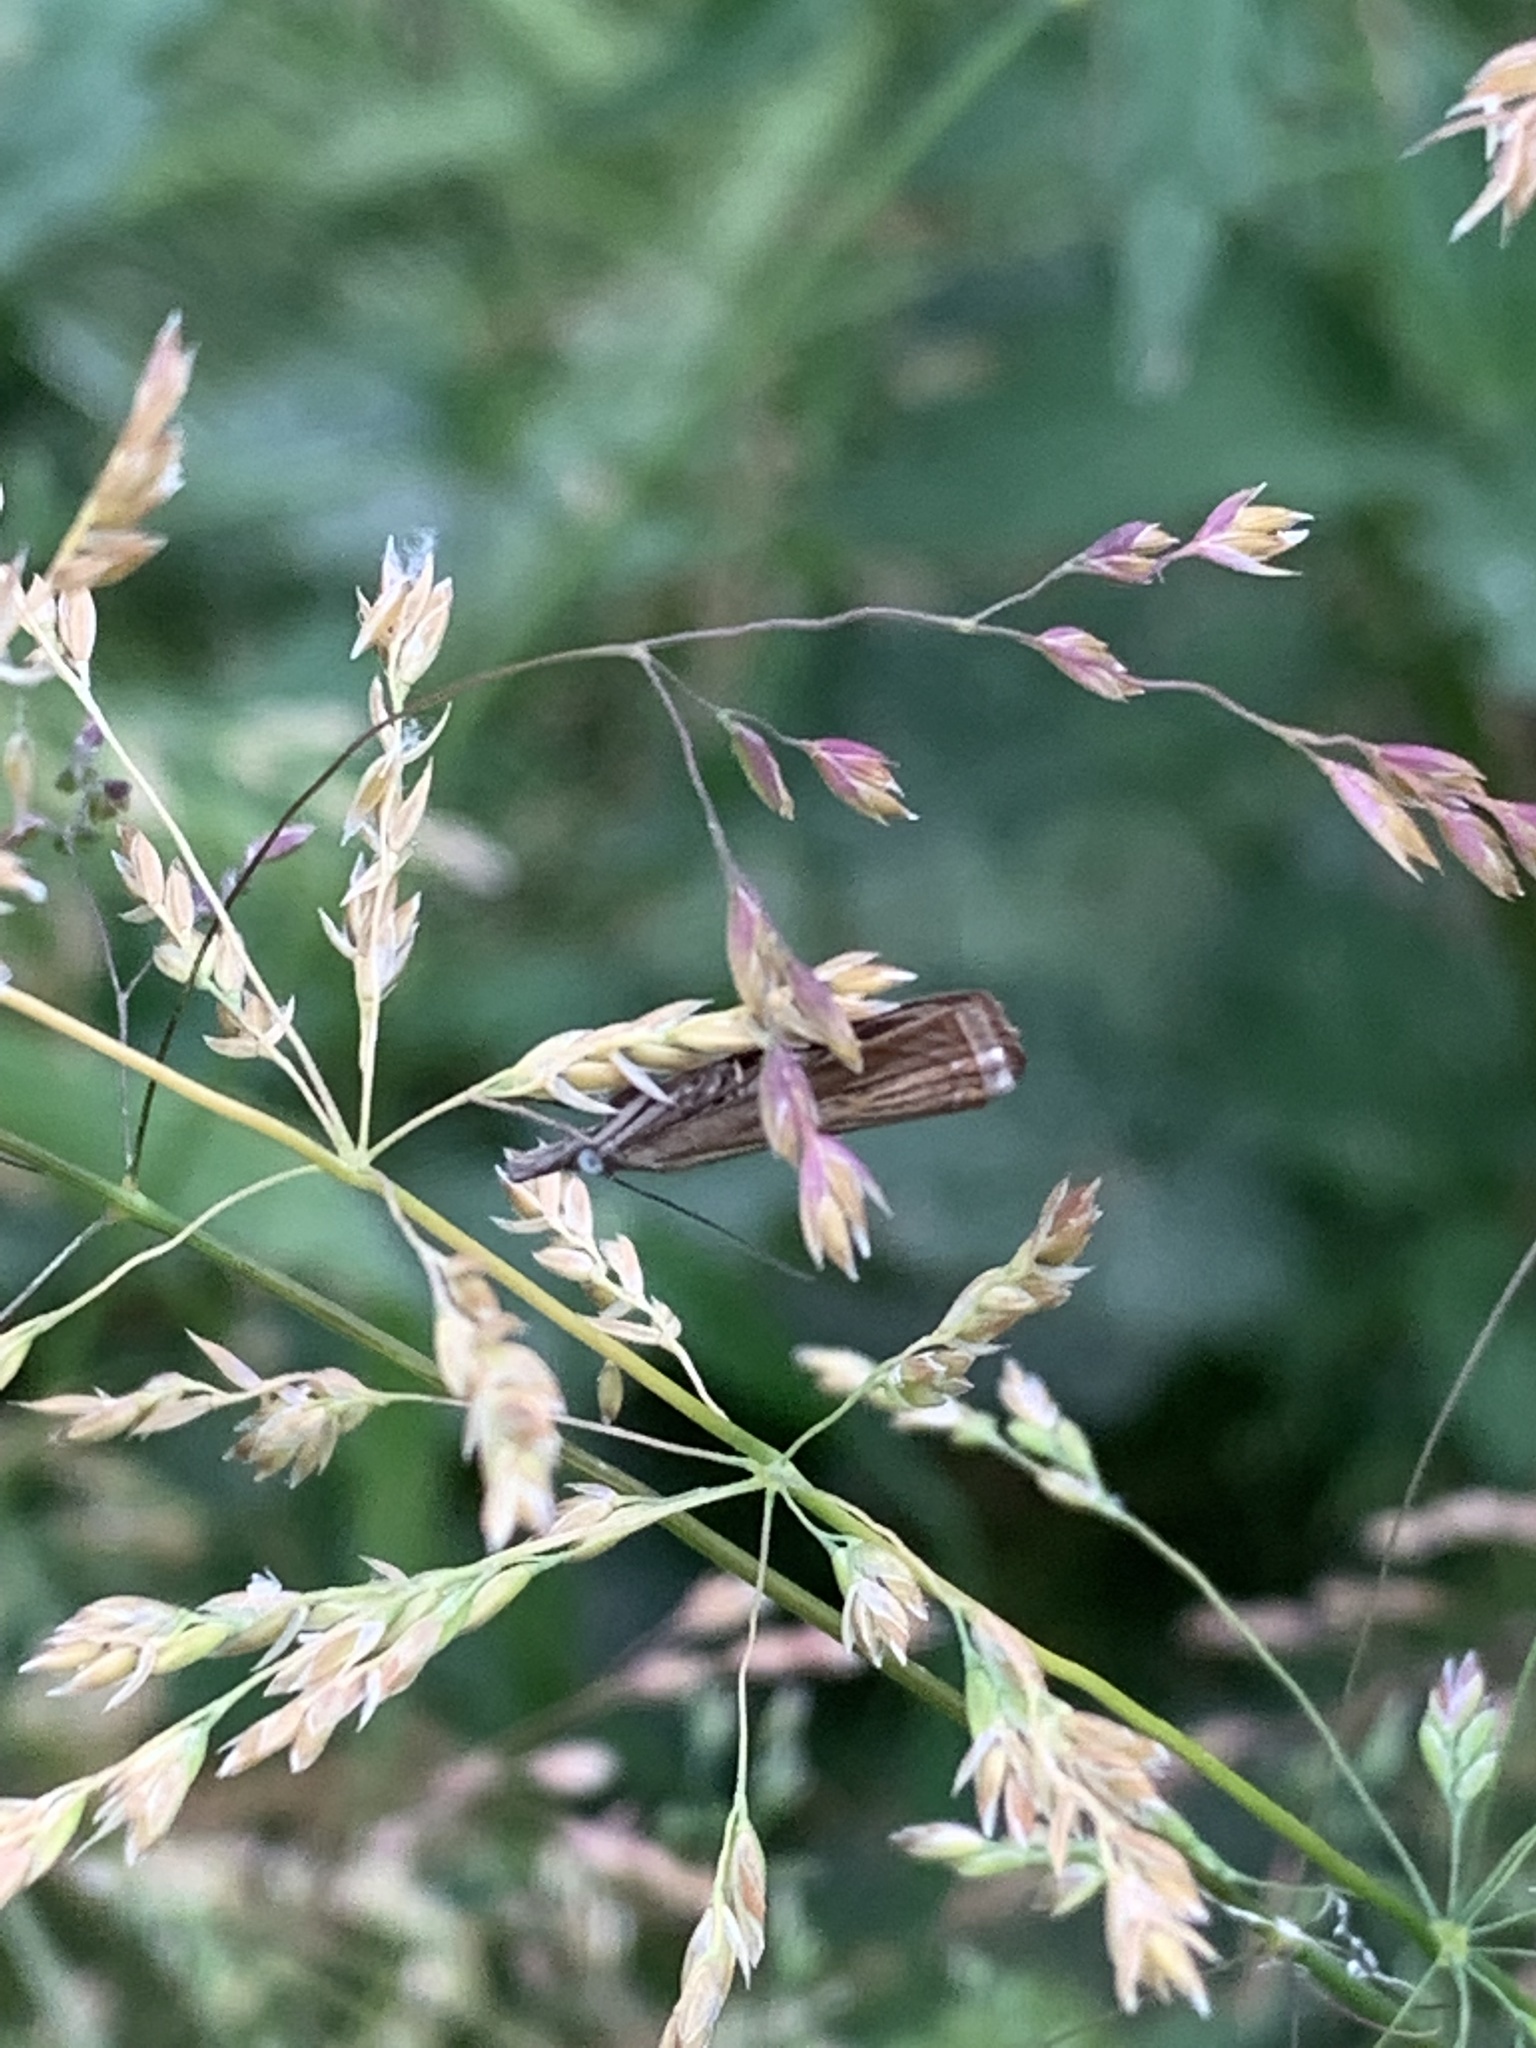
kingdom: Animalia
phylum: Arthropoda
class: Insecta
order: Lepidoptera
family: Crambidae
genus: Chrysoteuchia
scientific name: Chrysoteuchia culmella
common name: Garden grass-veneer
